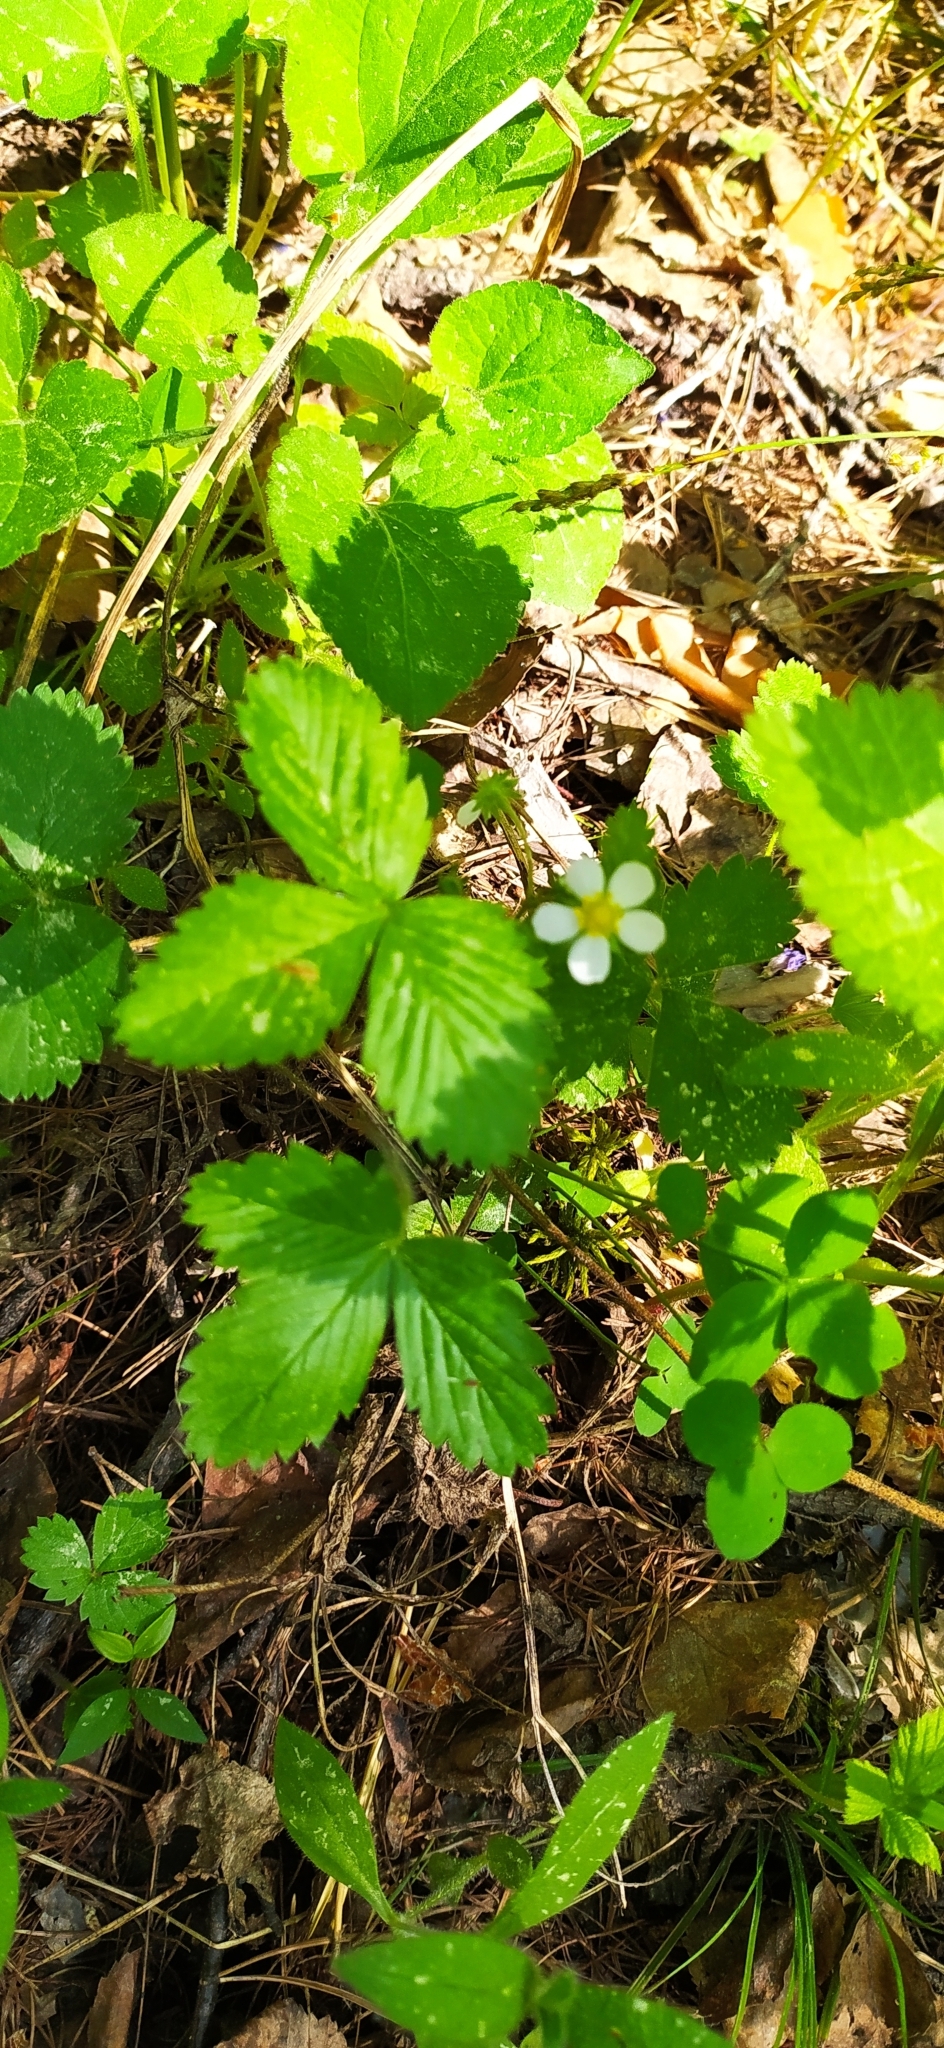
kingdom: Plantae
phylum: Tracheophyta
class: Magnoliopsida
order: Rosales
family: Rosaceae
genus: Fragaria
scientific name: Fragaria vesca
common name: Wild strawberry
